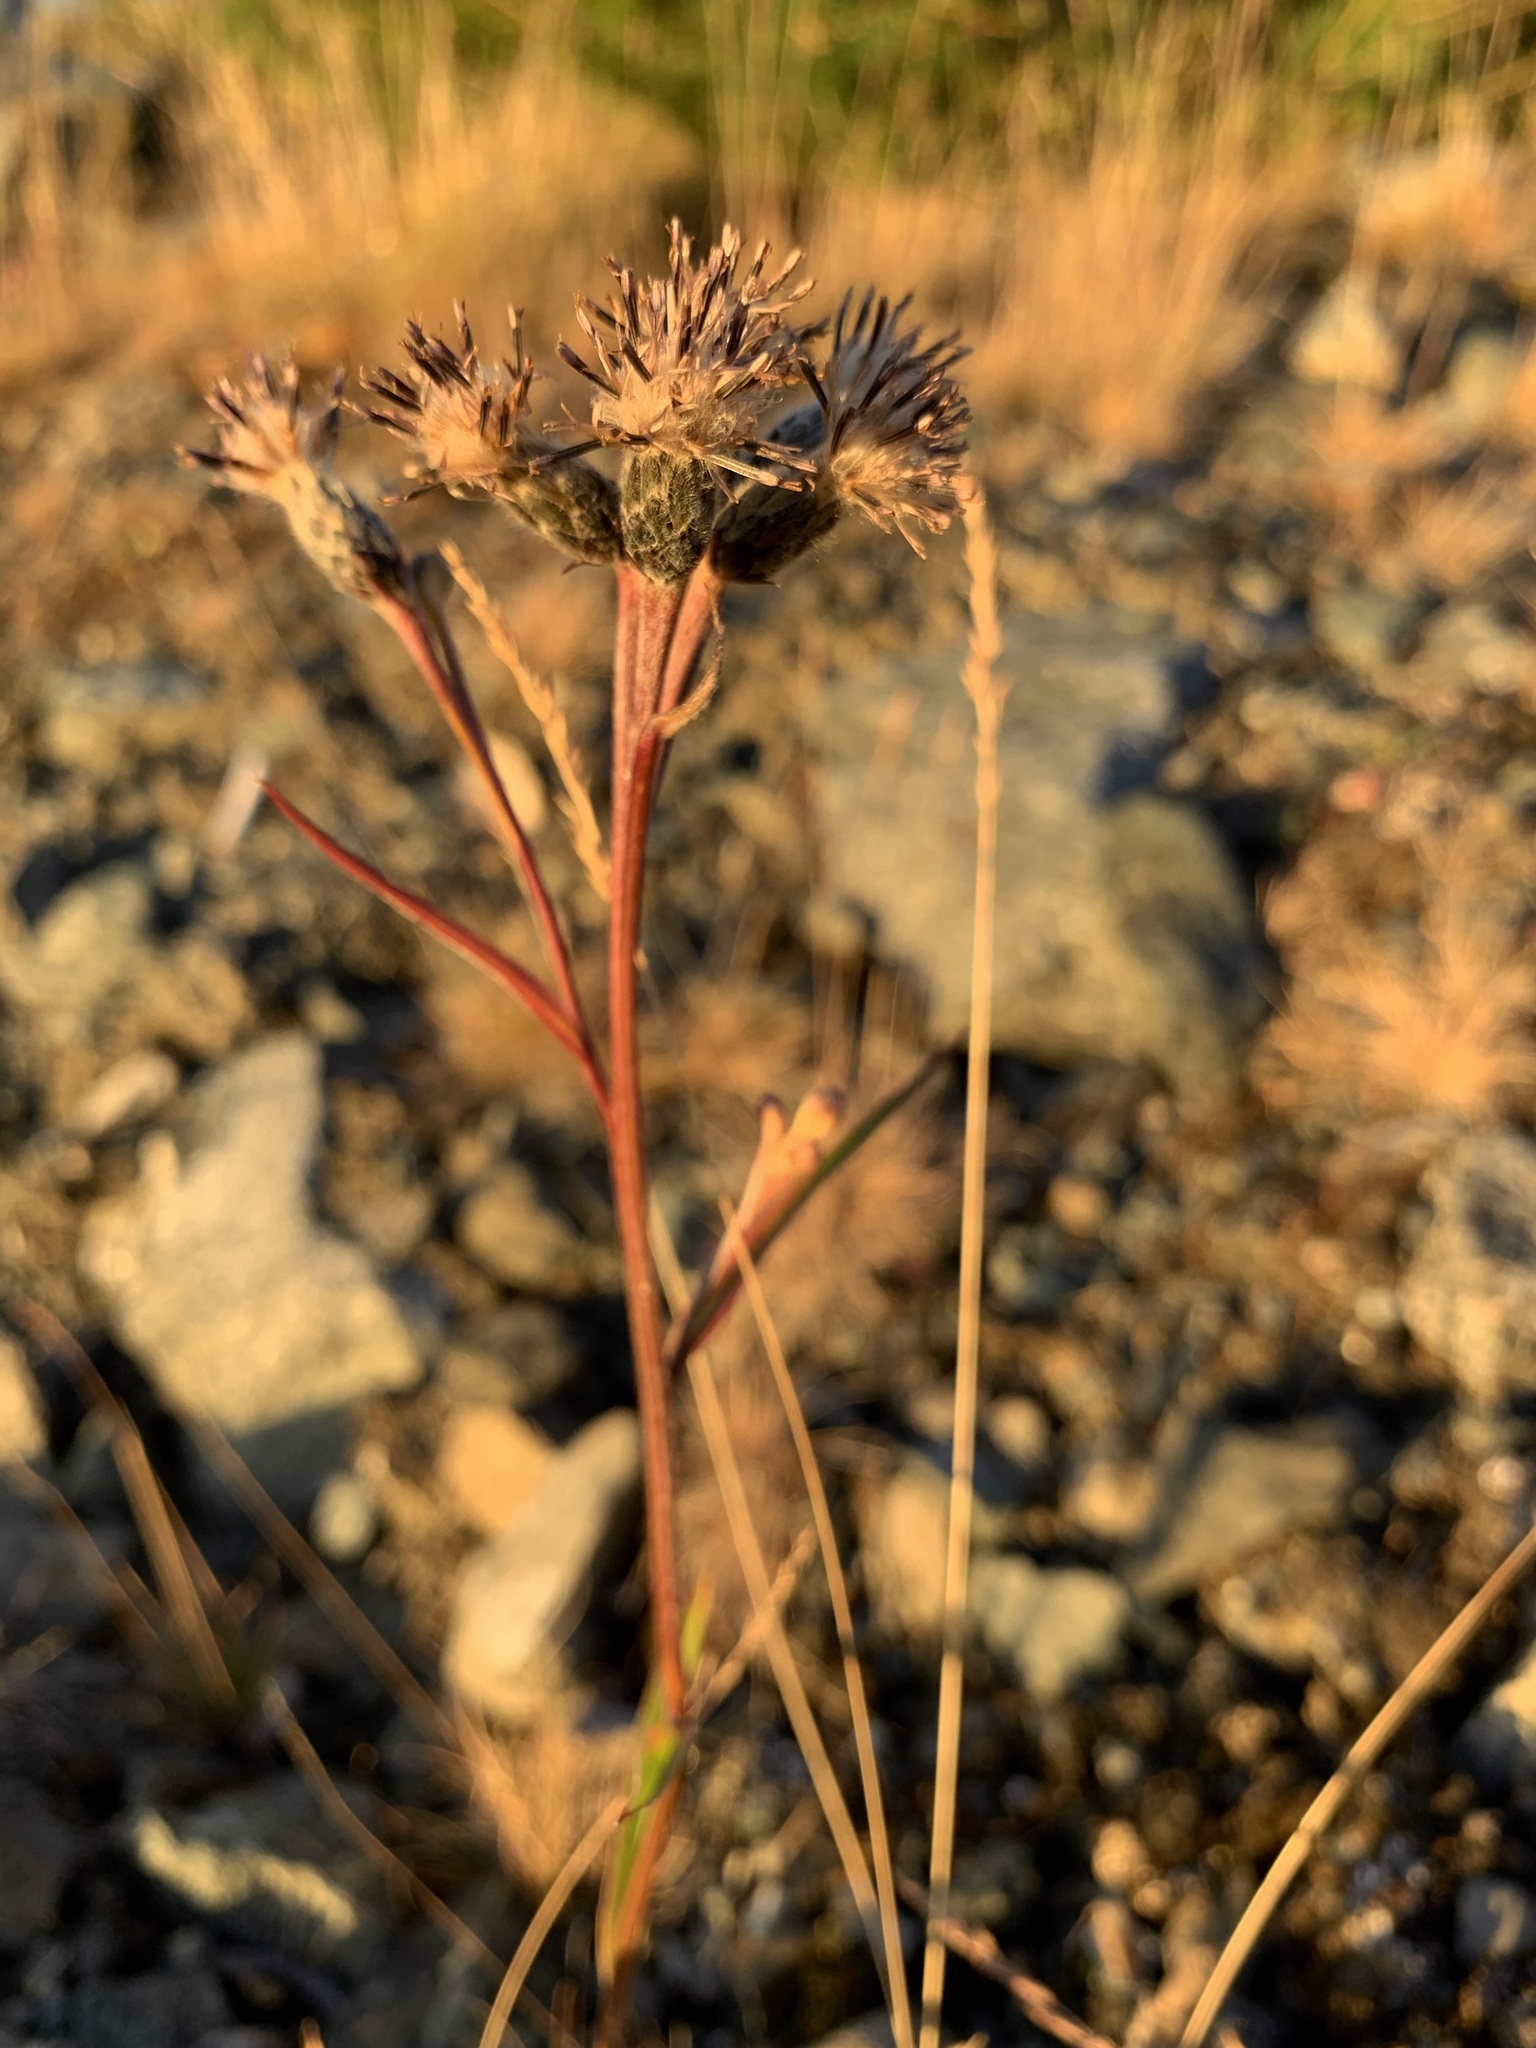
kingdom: Plantae
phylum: Tracheophyta
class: Magnoliopsida
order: Asterales
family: Asteraceae
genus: Saussurea
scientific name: Saussurea alpina
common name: Alpine saw-wort
